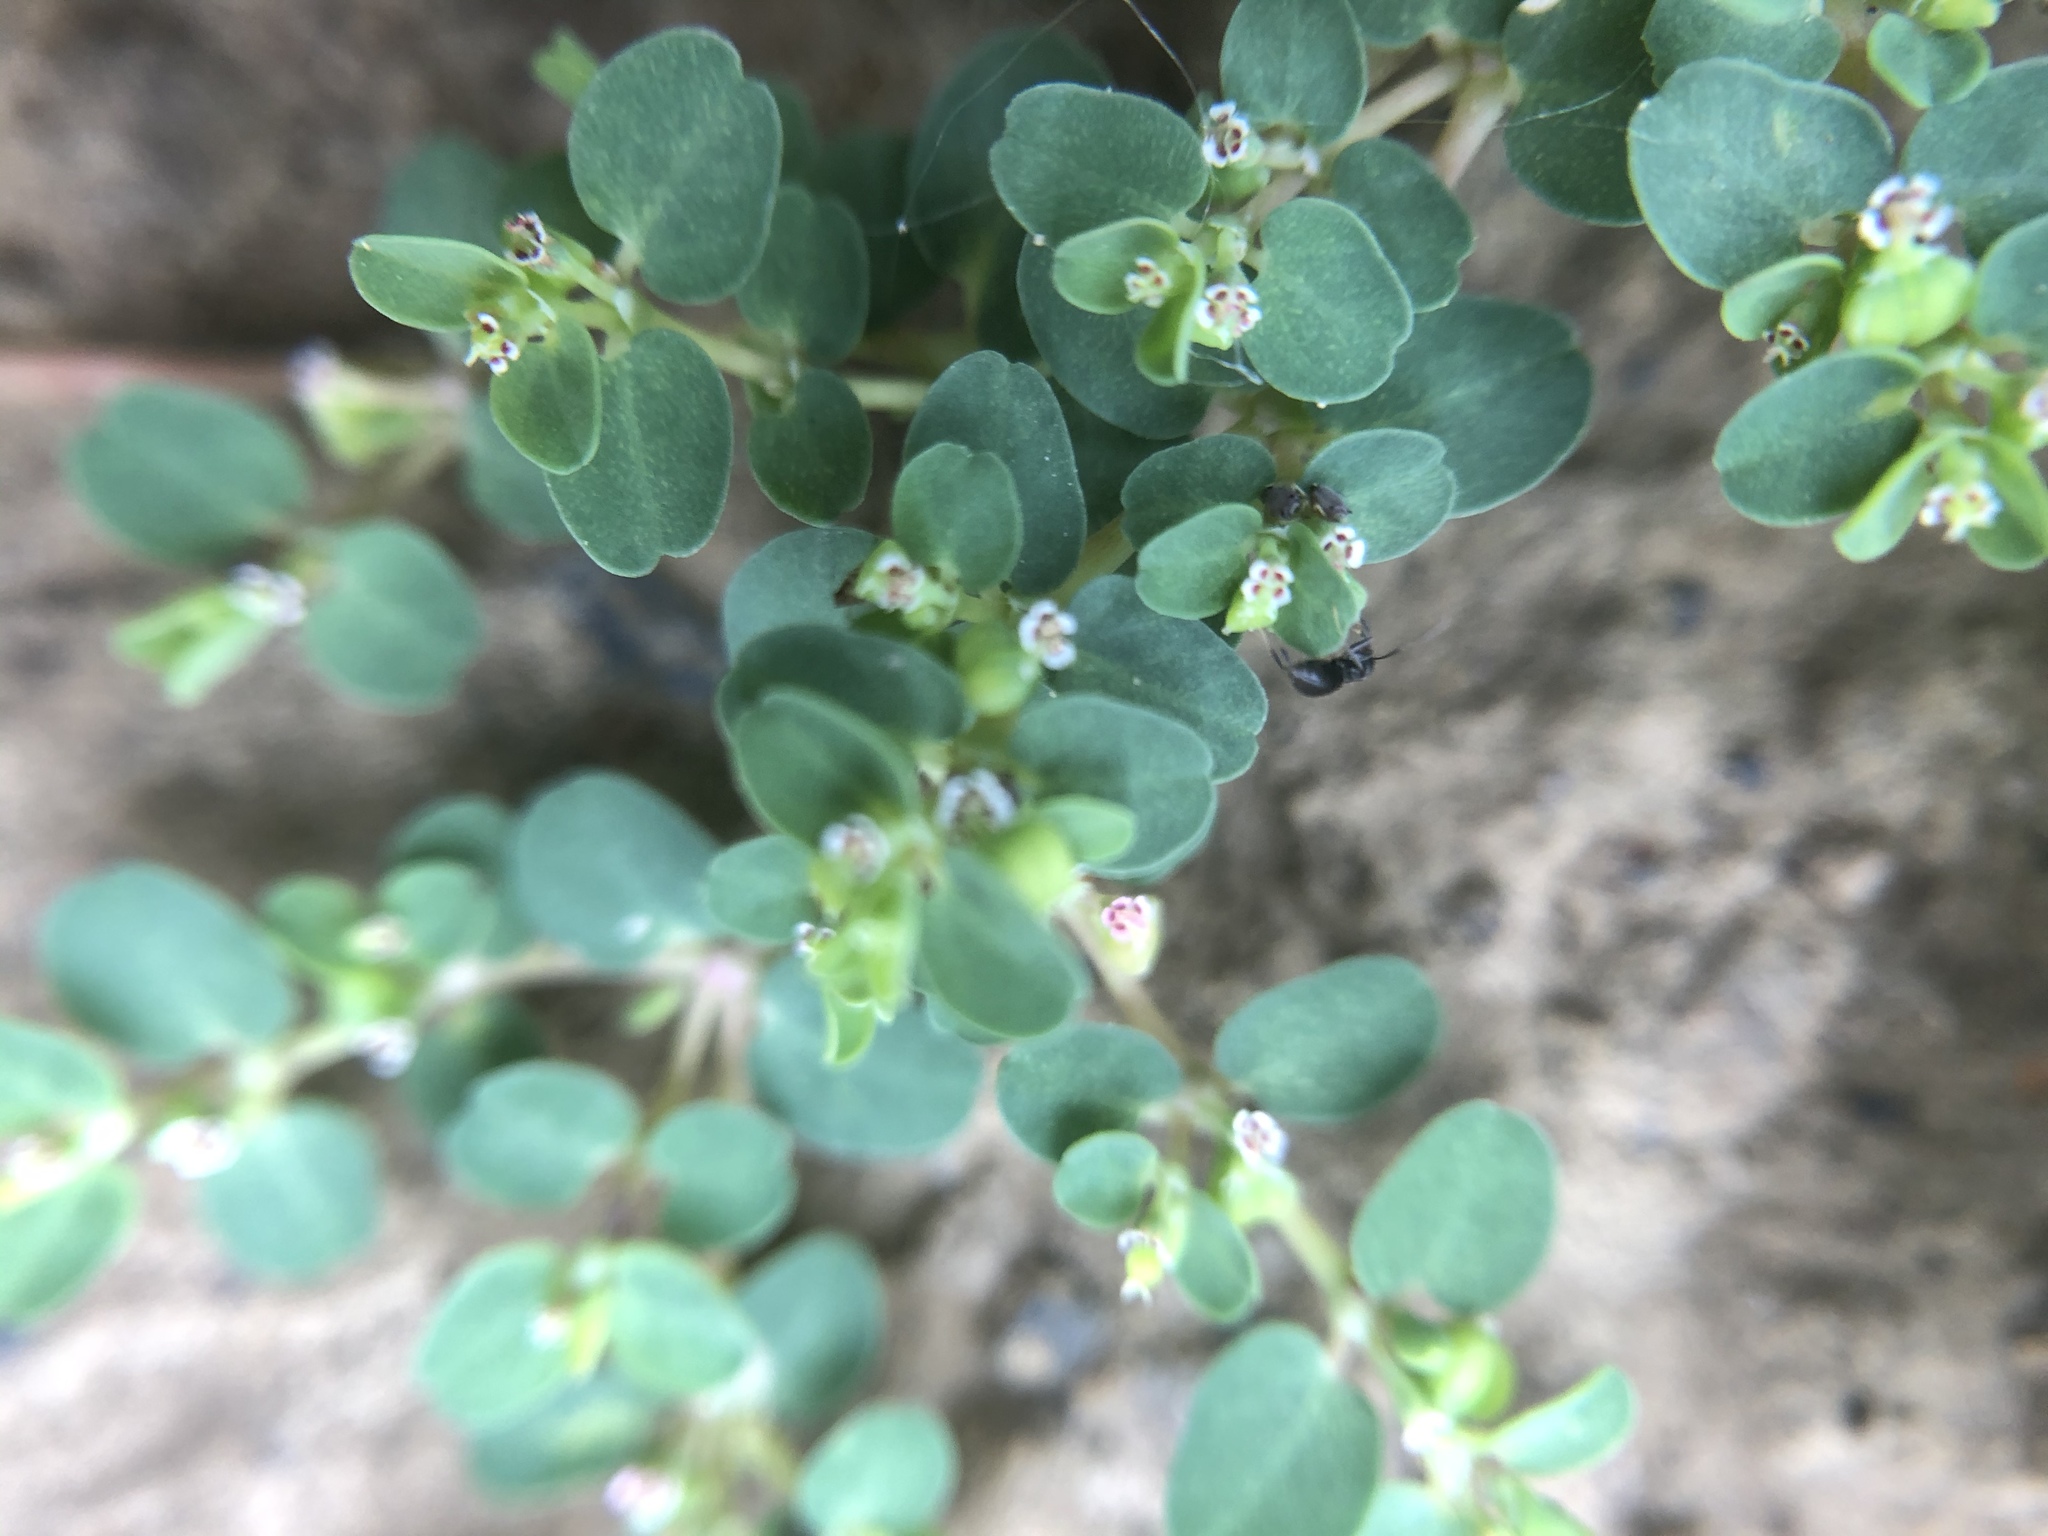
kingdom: Plantae
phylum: Tracheophyta
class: Magnoliopsida
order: Malpighiales
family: Euphorbiaceae
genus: Euphorbia
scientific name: Euphorbia serpens
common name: Matted sandmat
